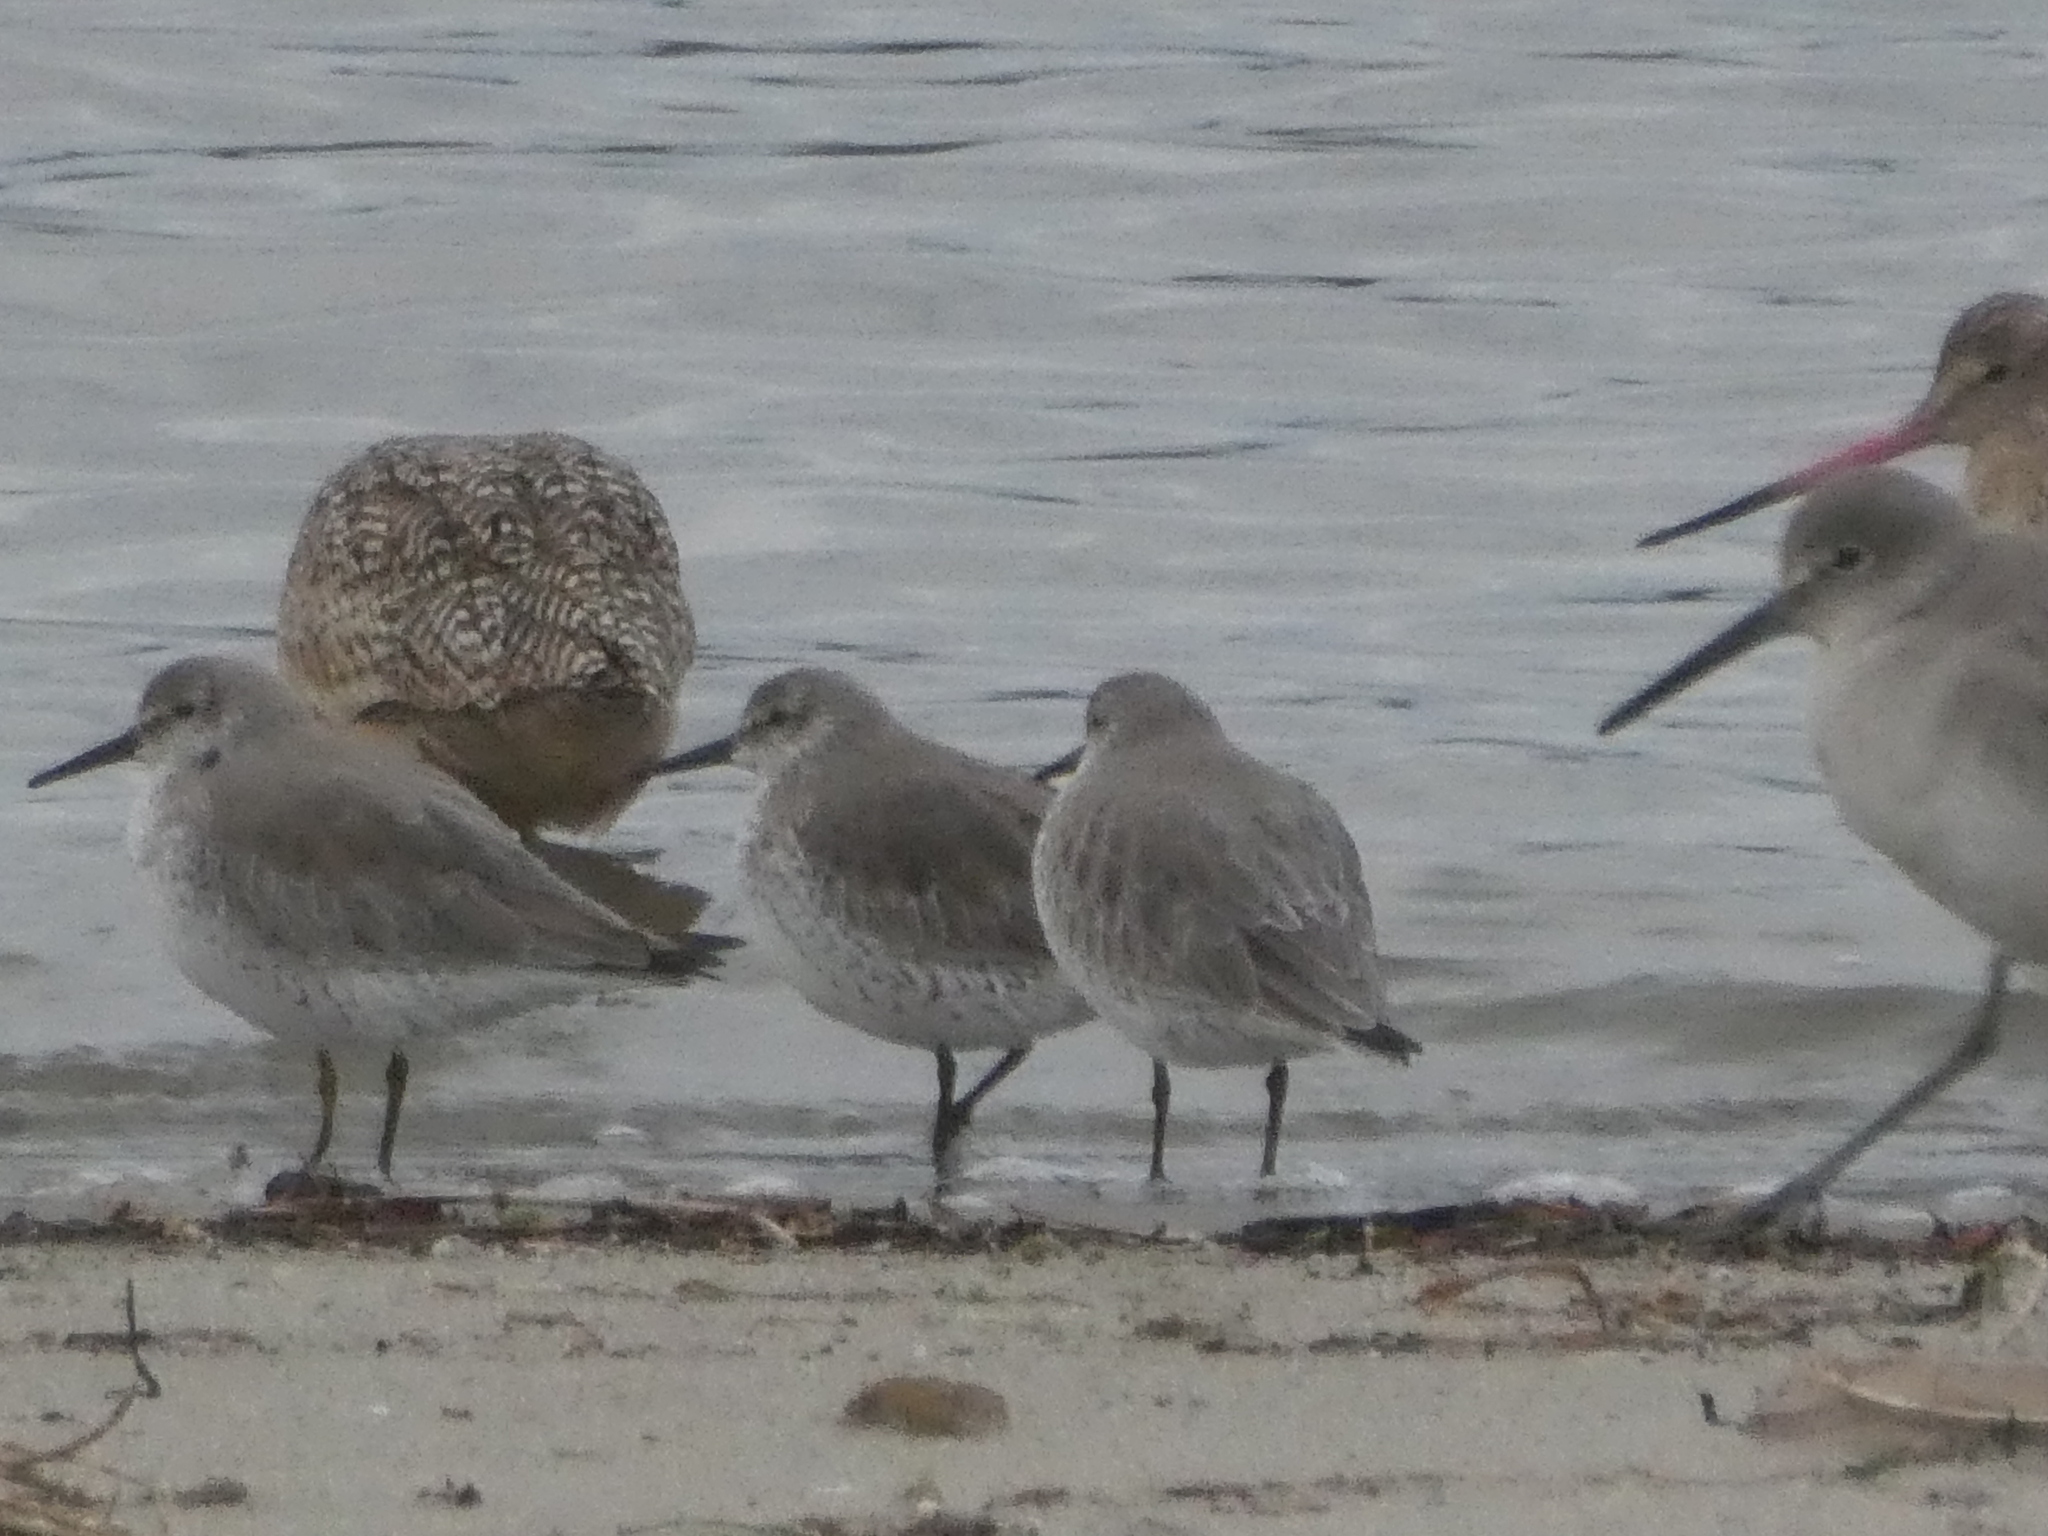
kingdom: Animalia
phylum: Chordata
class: Aves
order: Charadriiformes
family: Scolopacidae
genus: Calidris
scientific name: Calidris canutus
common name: Red knot
